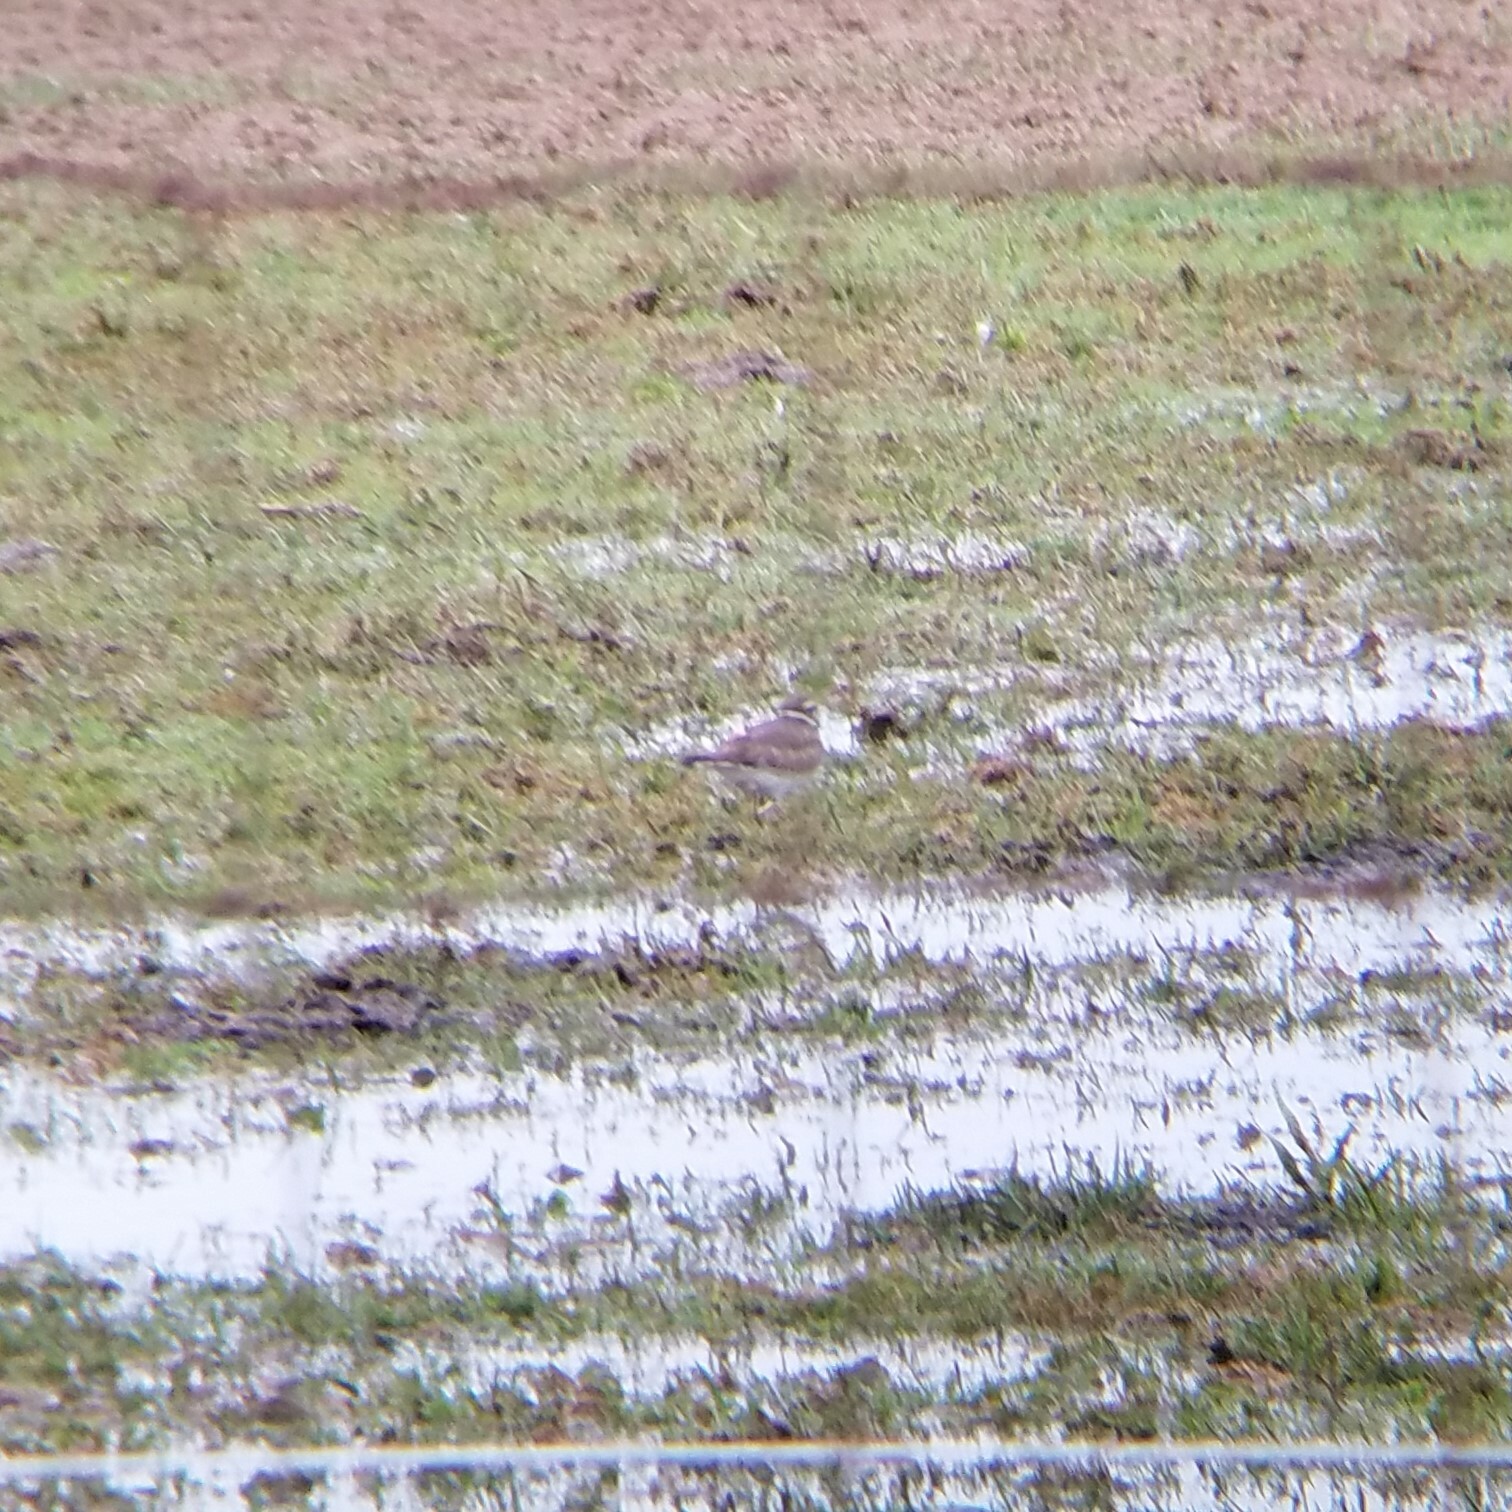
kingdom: Animalia
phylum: Chordata
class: Aves
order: Charadriiformes
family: Charadriidae
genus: Charadrius
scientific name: Charadrius vociferus
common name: Killdeer
